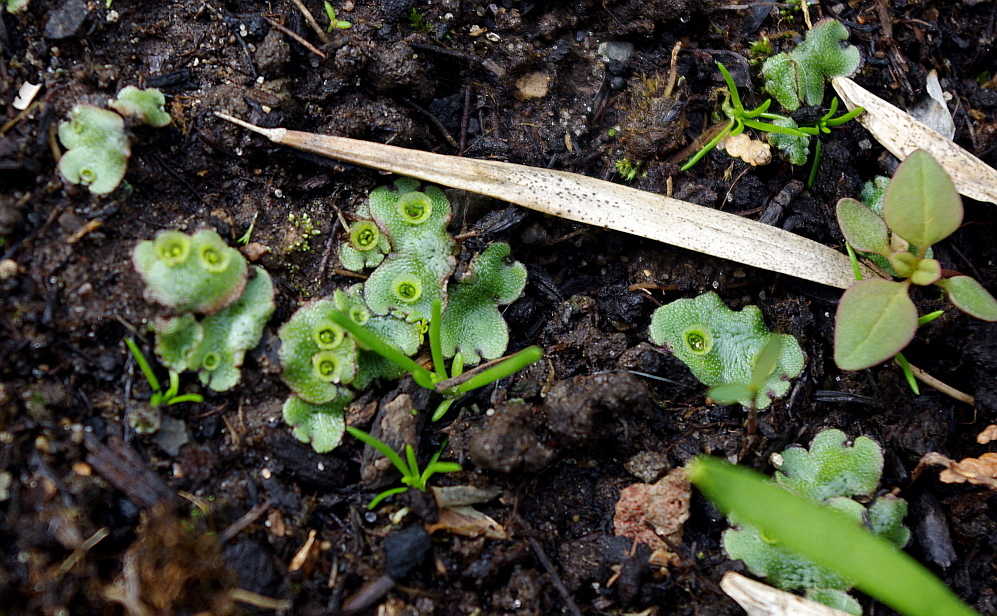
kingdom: Plantae
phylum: Marchantiophyta
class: Marchantiopsida
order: Marchantiales
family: Marchantiaceae
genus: Marchantia
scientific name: Marchantia polymorpha
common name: Common liverwort
